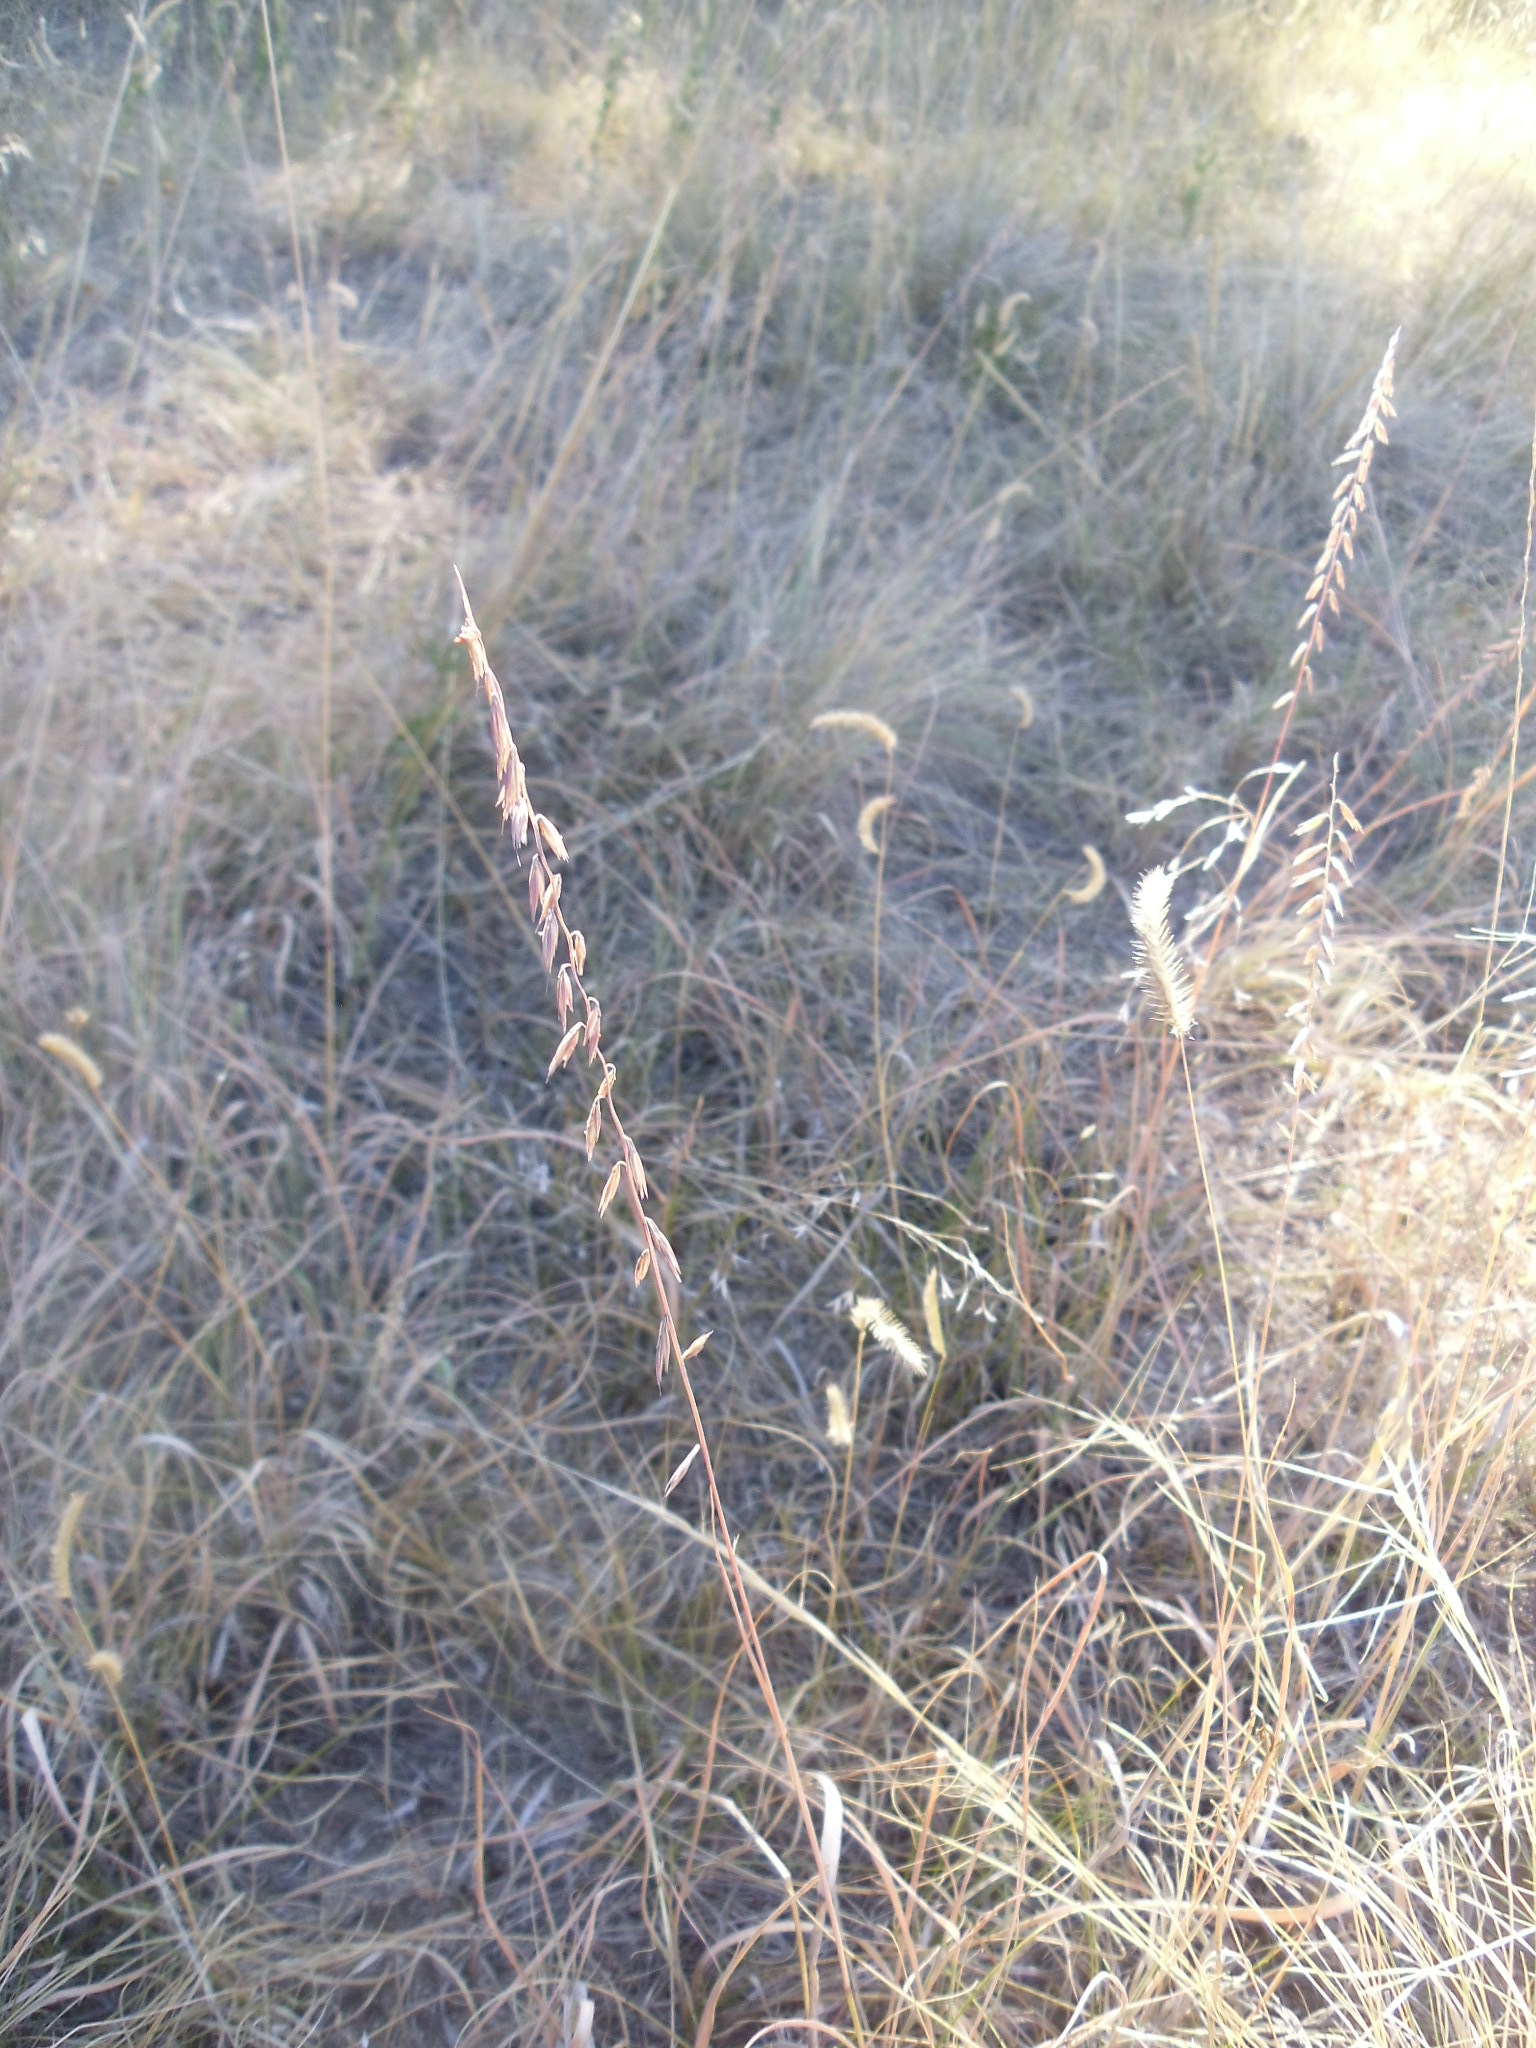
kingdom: Plantae
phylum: Tracheophyta
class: Liliopsida
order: Poales
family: Poaceae
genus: Bouteloua
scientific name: Bouteloua curtipendula
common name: Side-oats grama
